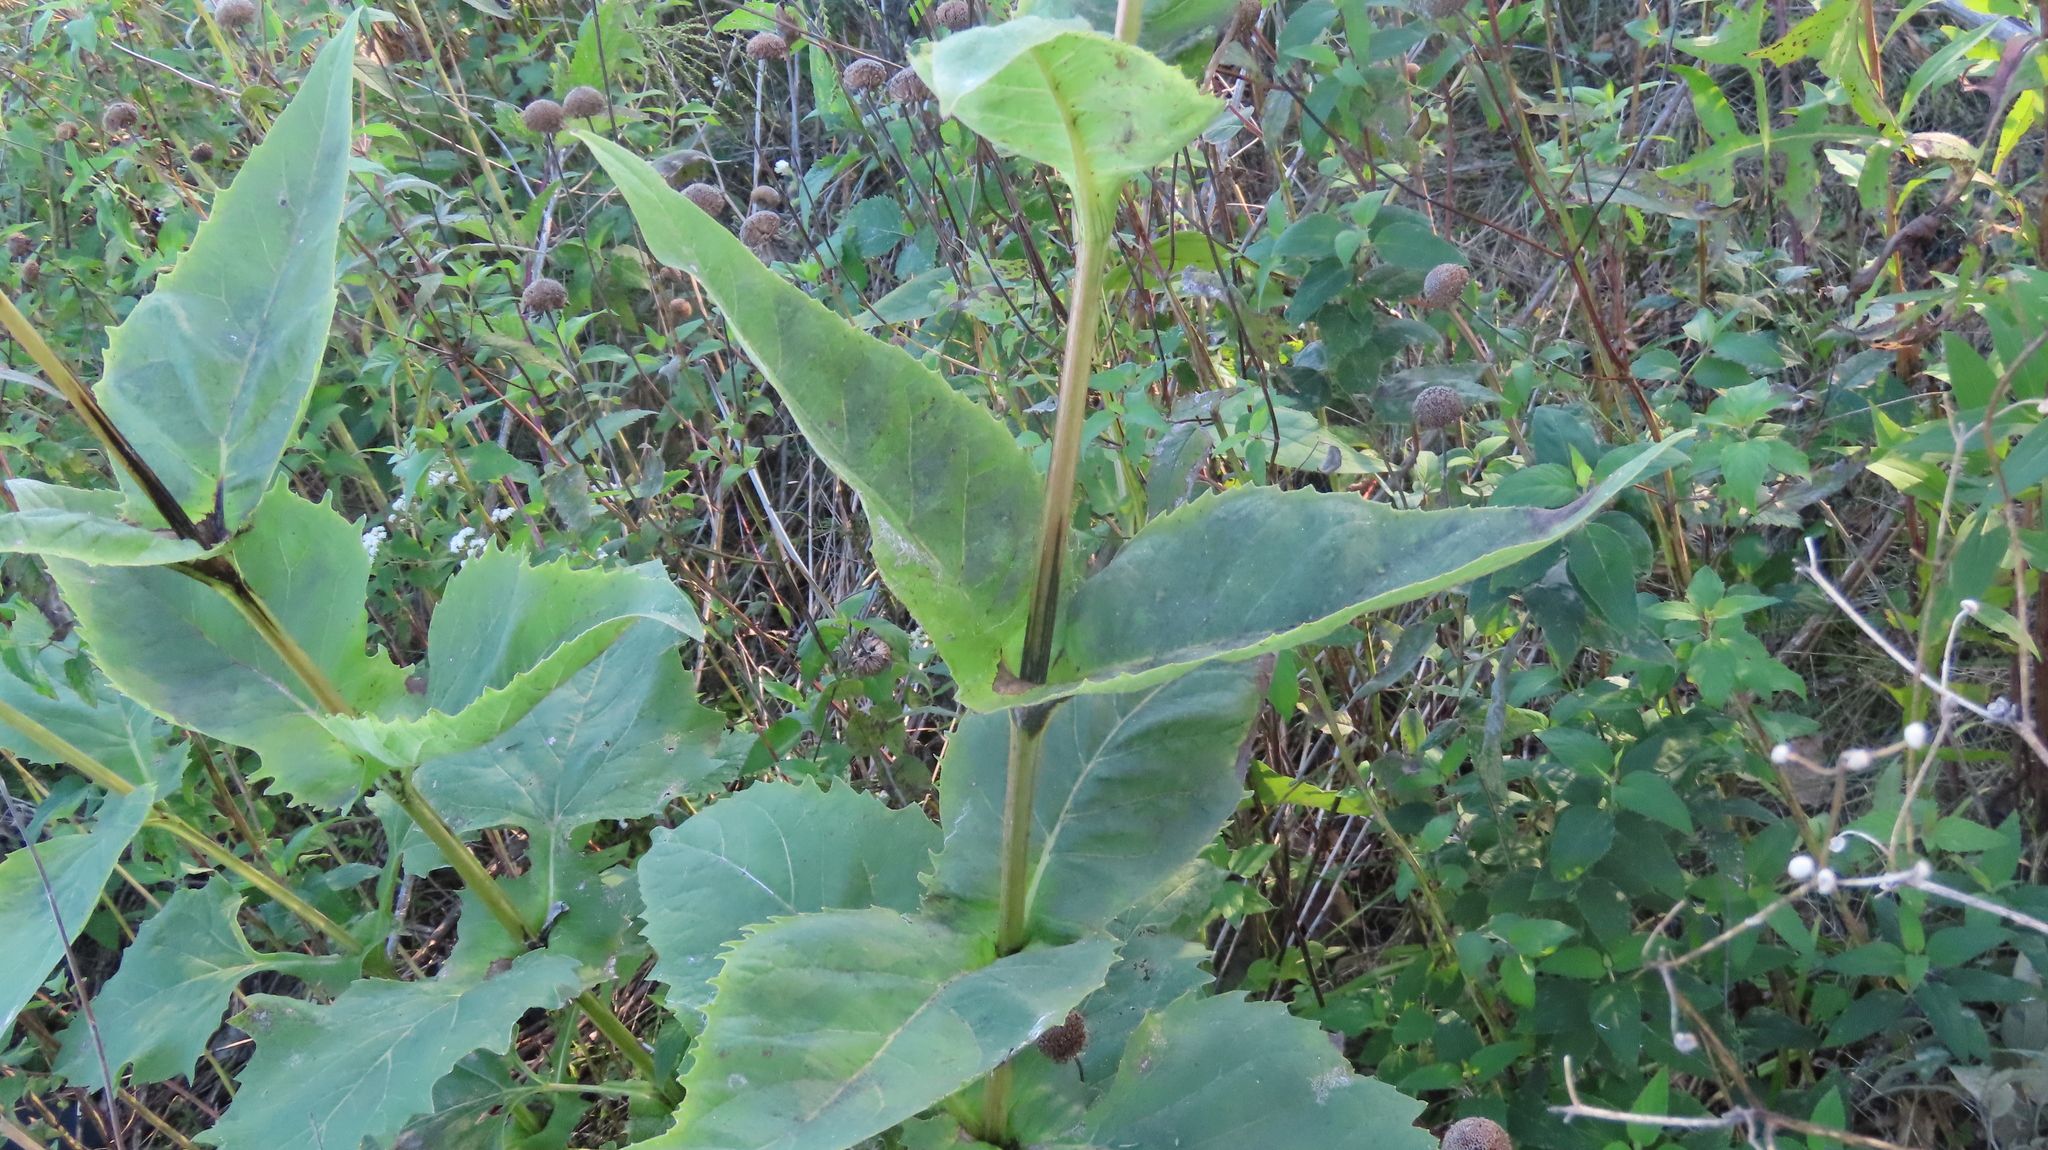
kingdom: Plantae
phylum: Tracheophyta
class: Magnoliopsida
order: Asterales
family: Asteraceae
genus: Silphium
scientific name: Silphium perfoliatum
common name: Cup-plant
